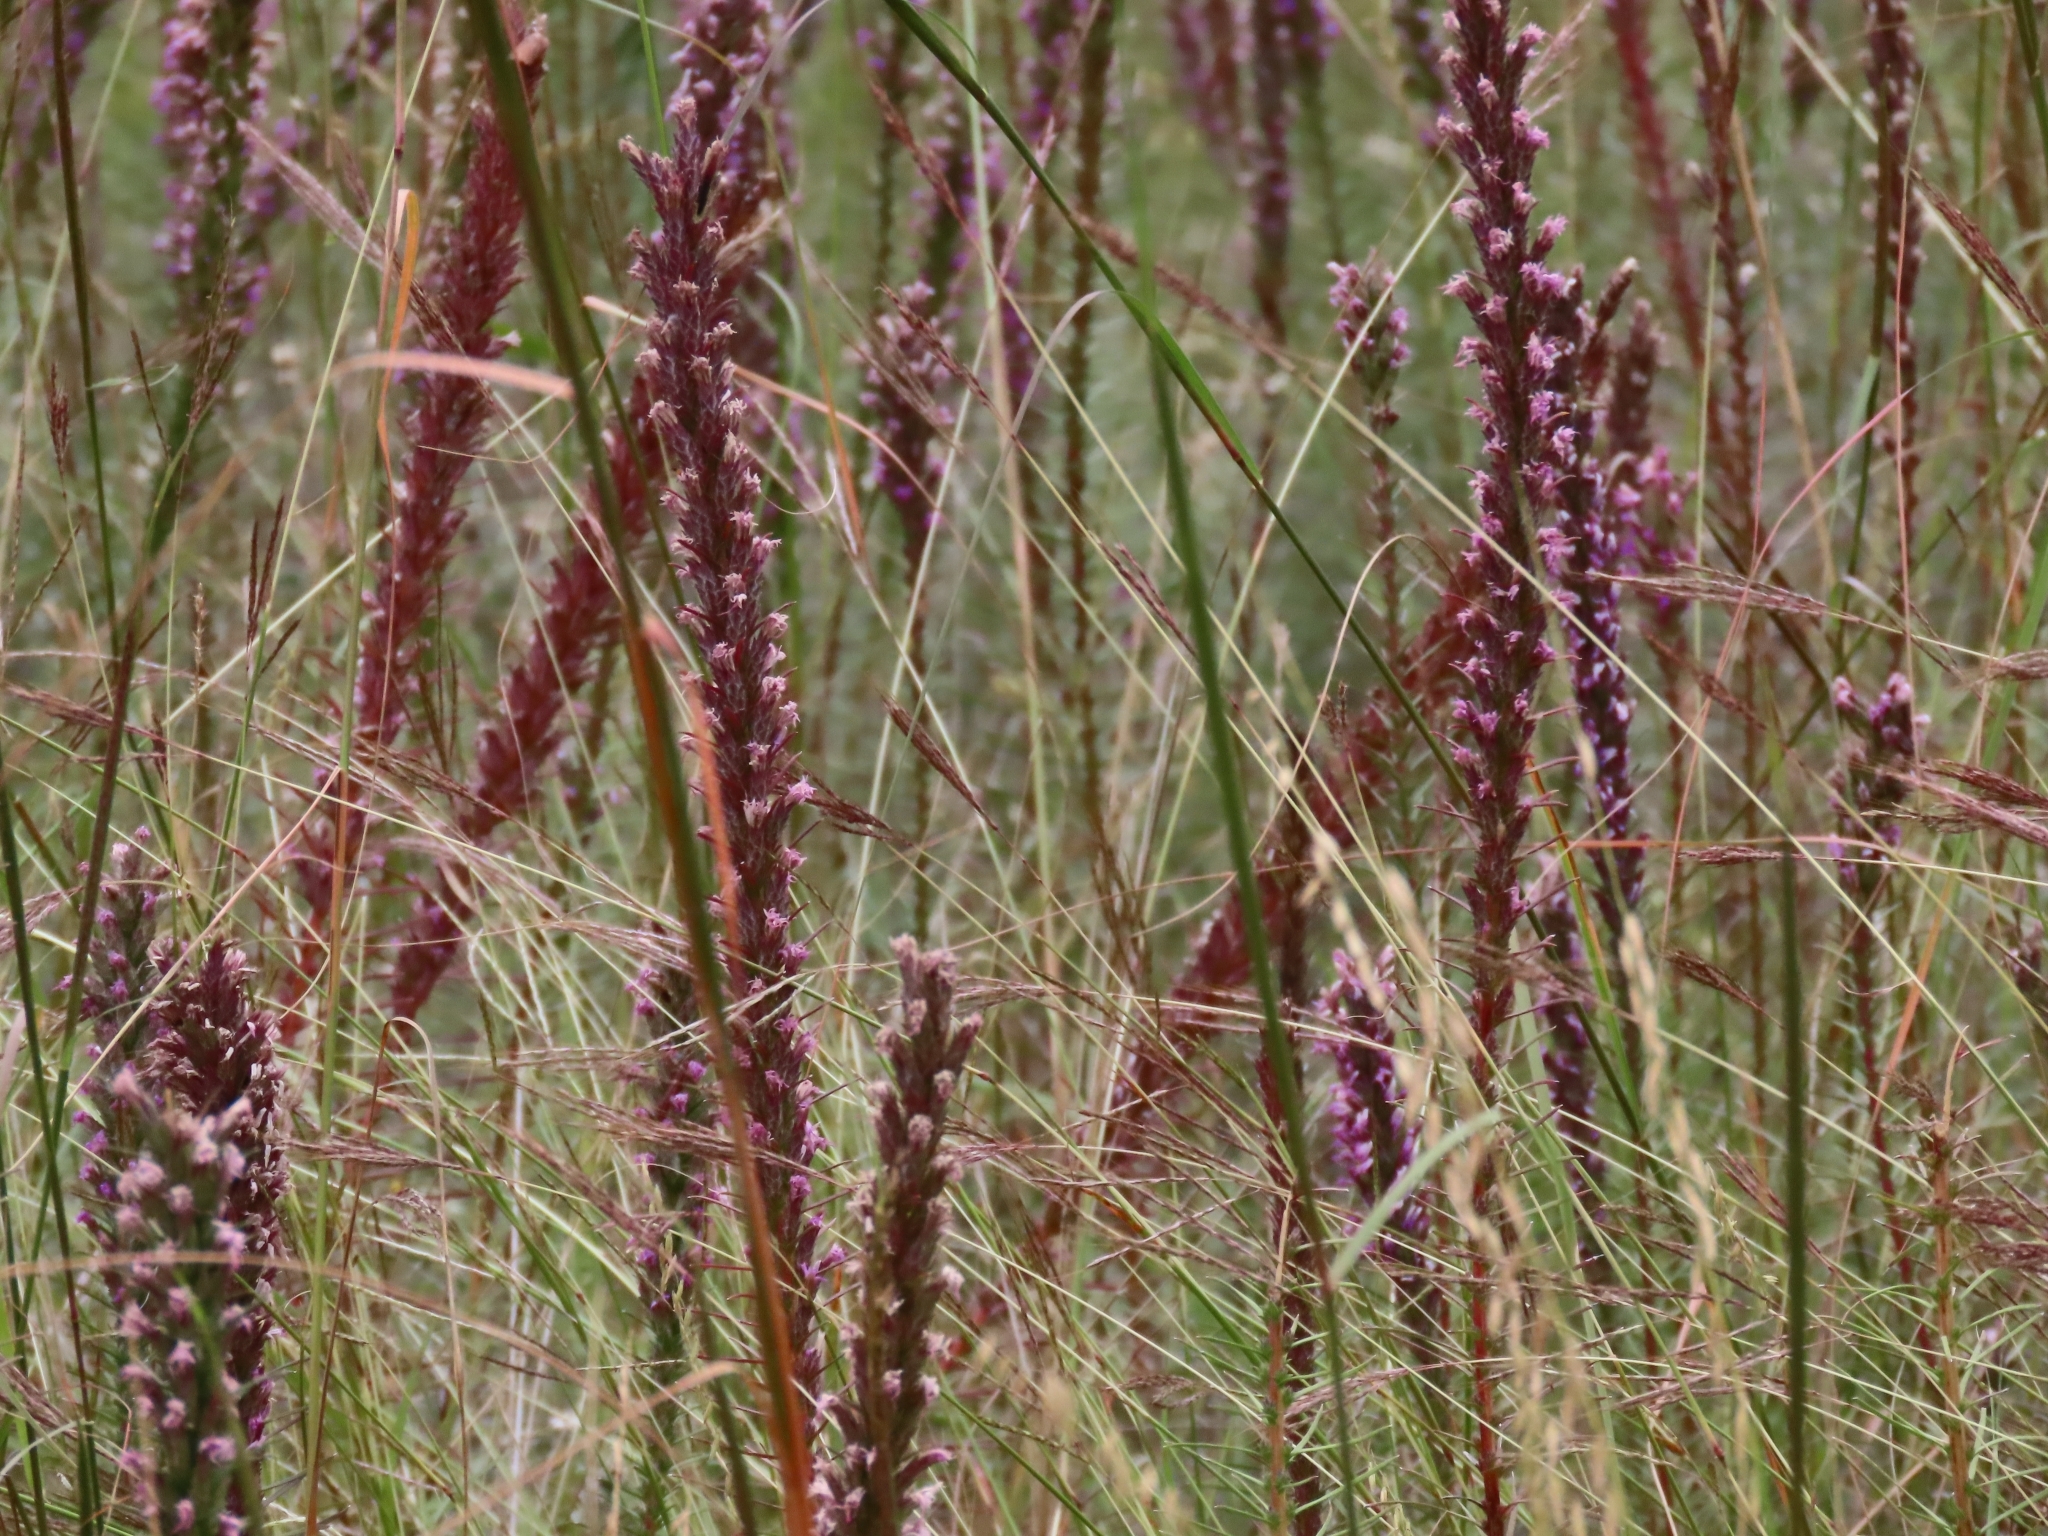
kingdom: Plantae
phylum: Tracheophyta
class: Magnoliopsida
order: Asterales
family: Asteraceae
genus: Liatris
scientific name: Liatris punctata
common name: Dotted gayfeather
